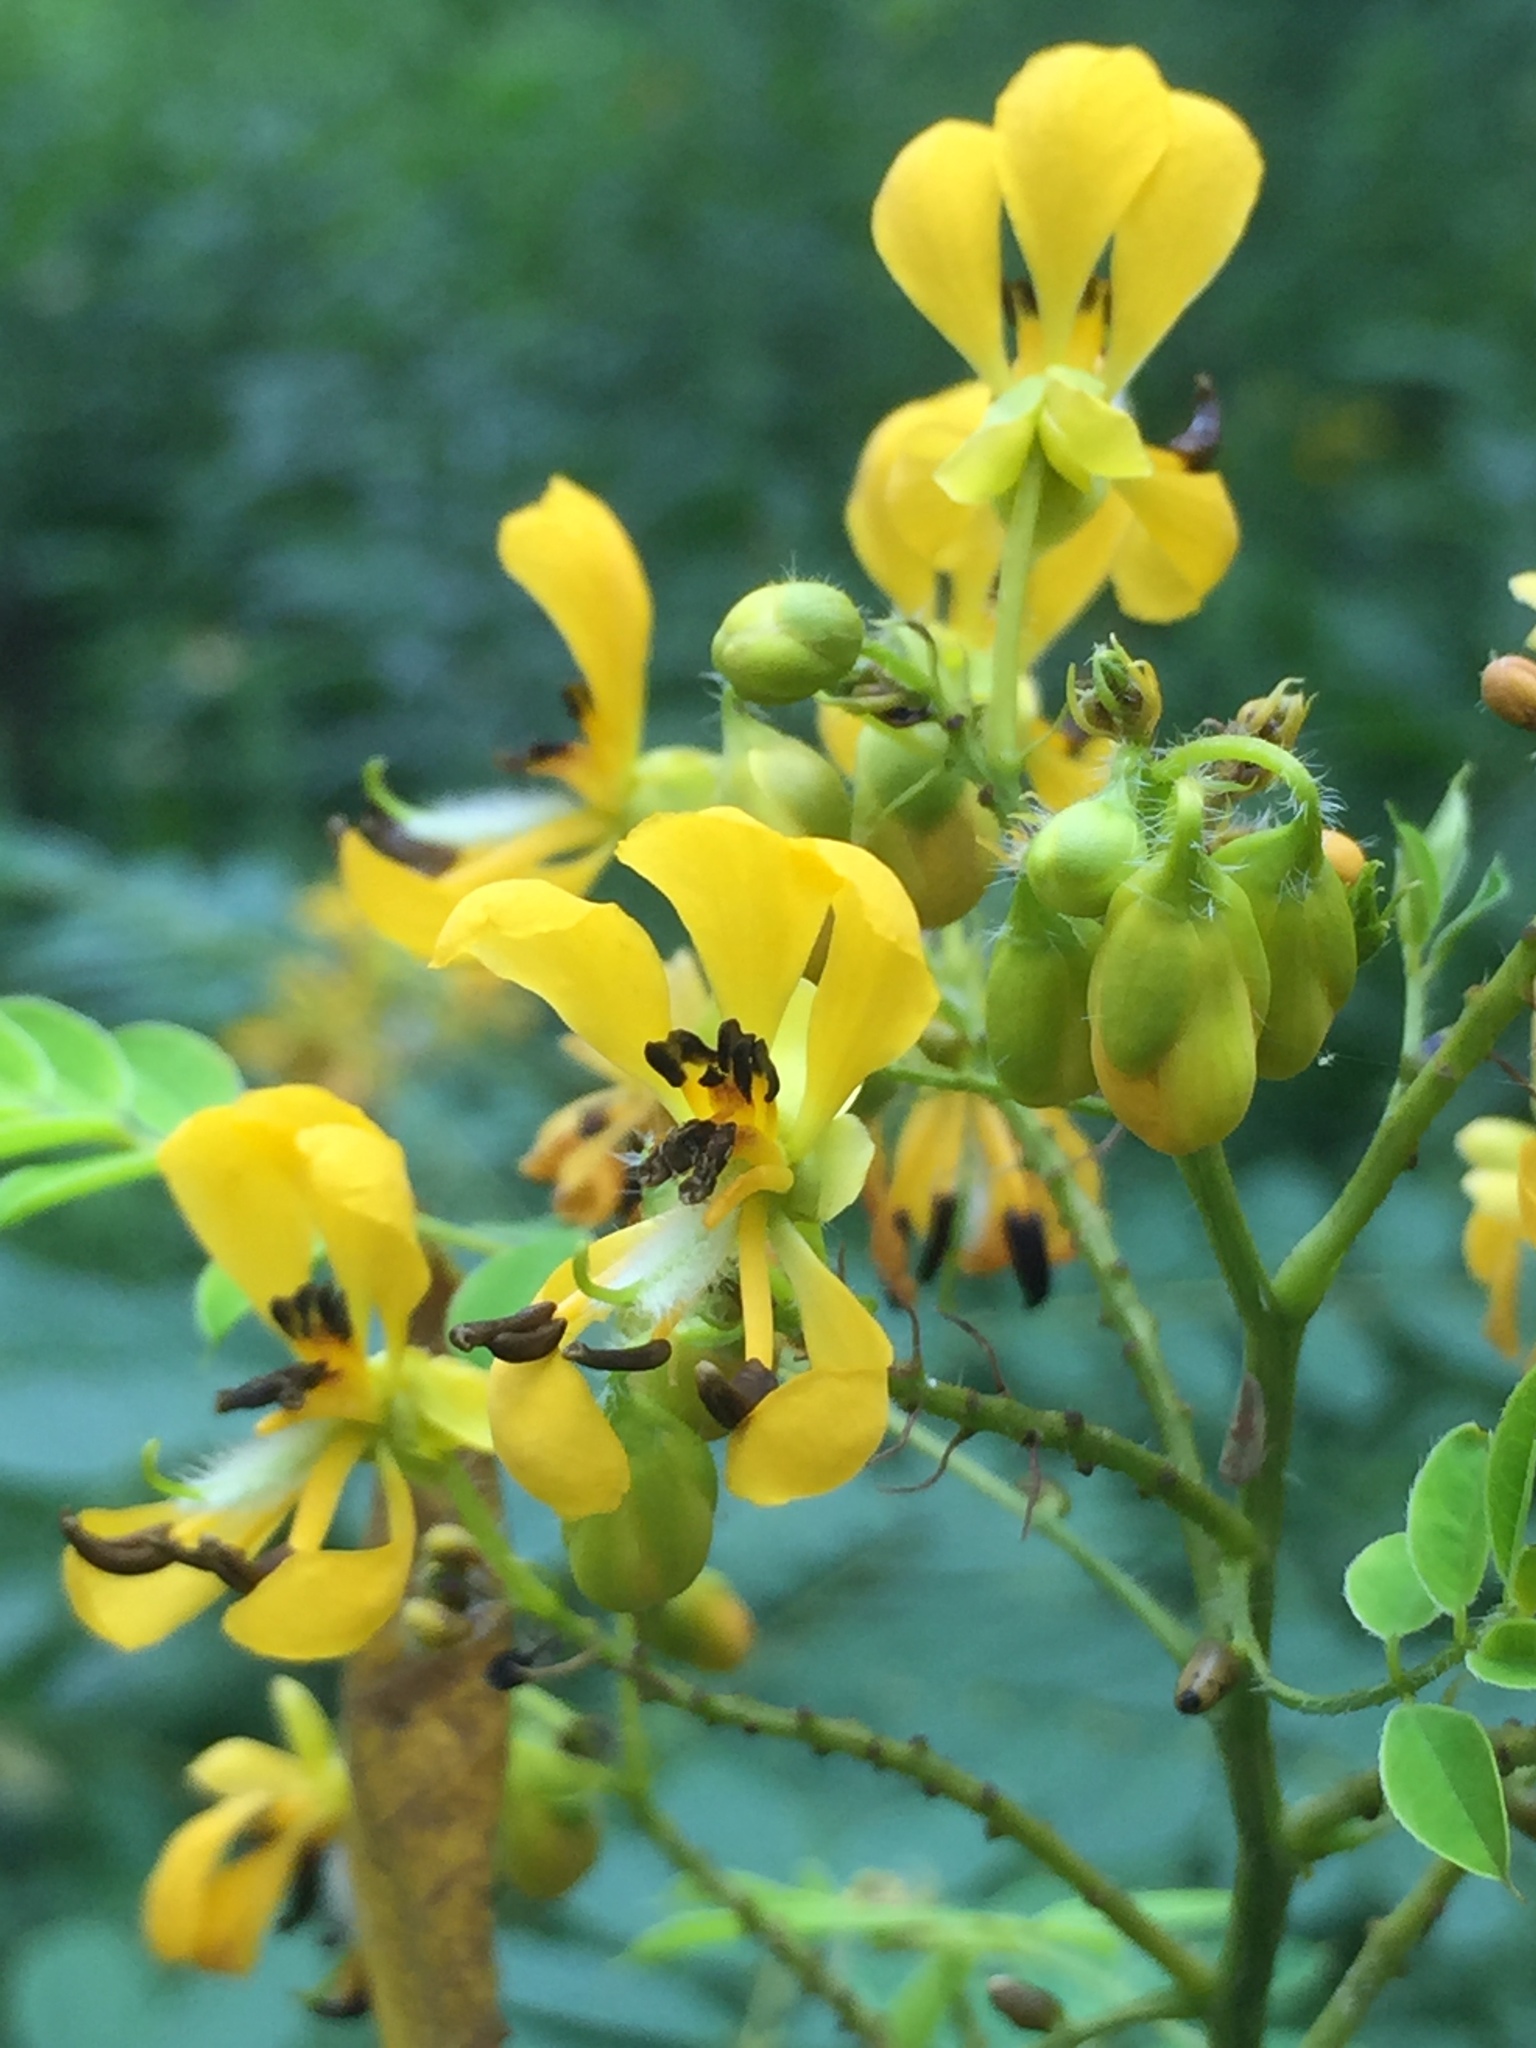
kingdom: Plantae
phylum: Tracheophyta
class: Magnoliopsida
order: Fabales
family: Fabaceae
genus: Senna
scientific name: Senna hebecarpa
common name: Wild senna
